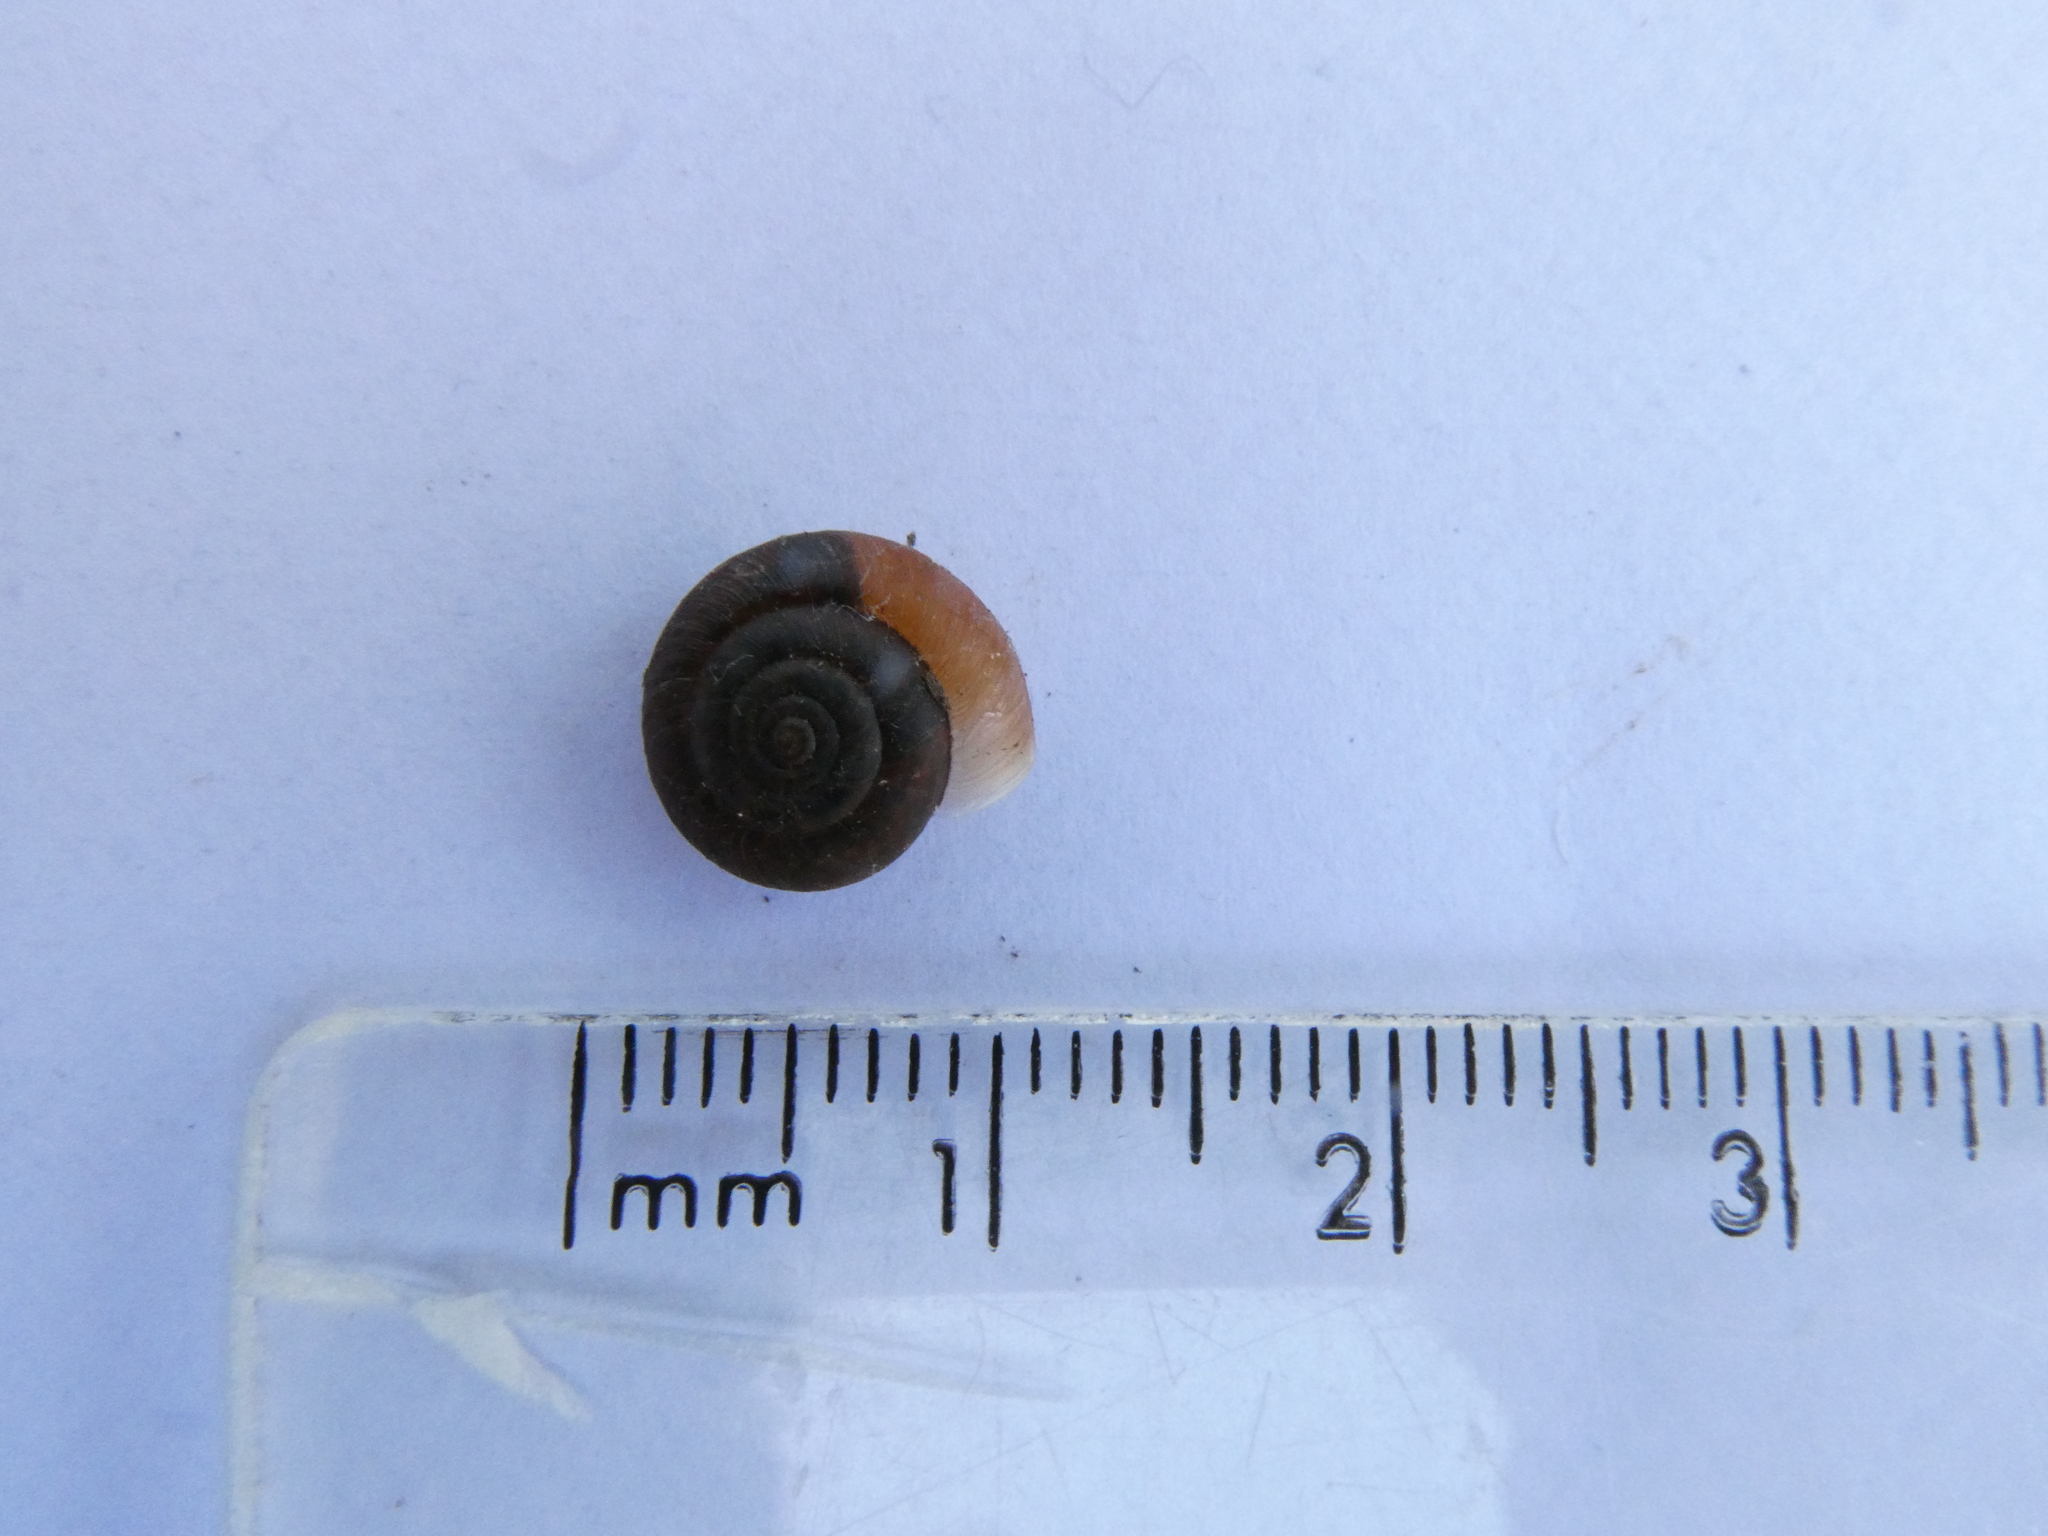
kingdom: Animalia
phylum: Mollusca
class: Gastropoda
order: Stylommatophora
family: Hygromiidae
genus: Trochulus
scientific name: Trochulus striolatus
